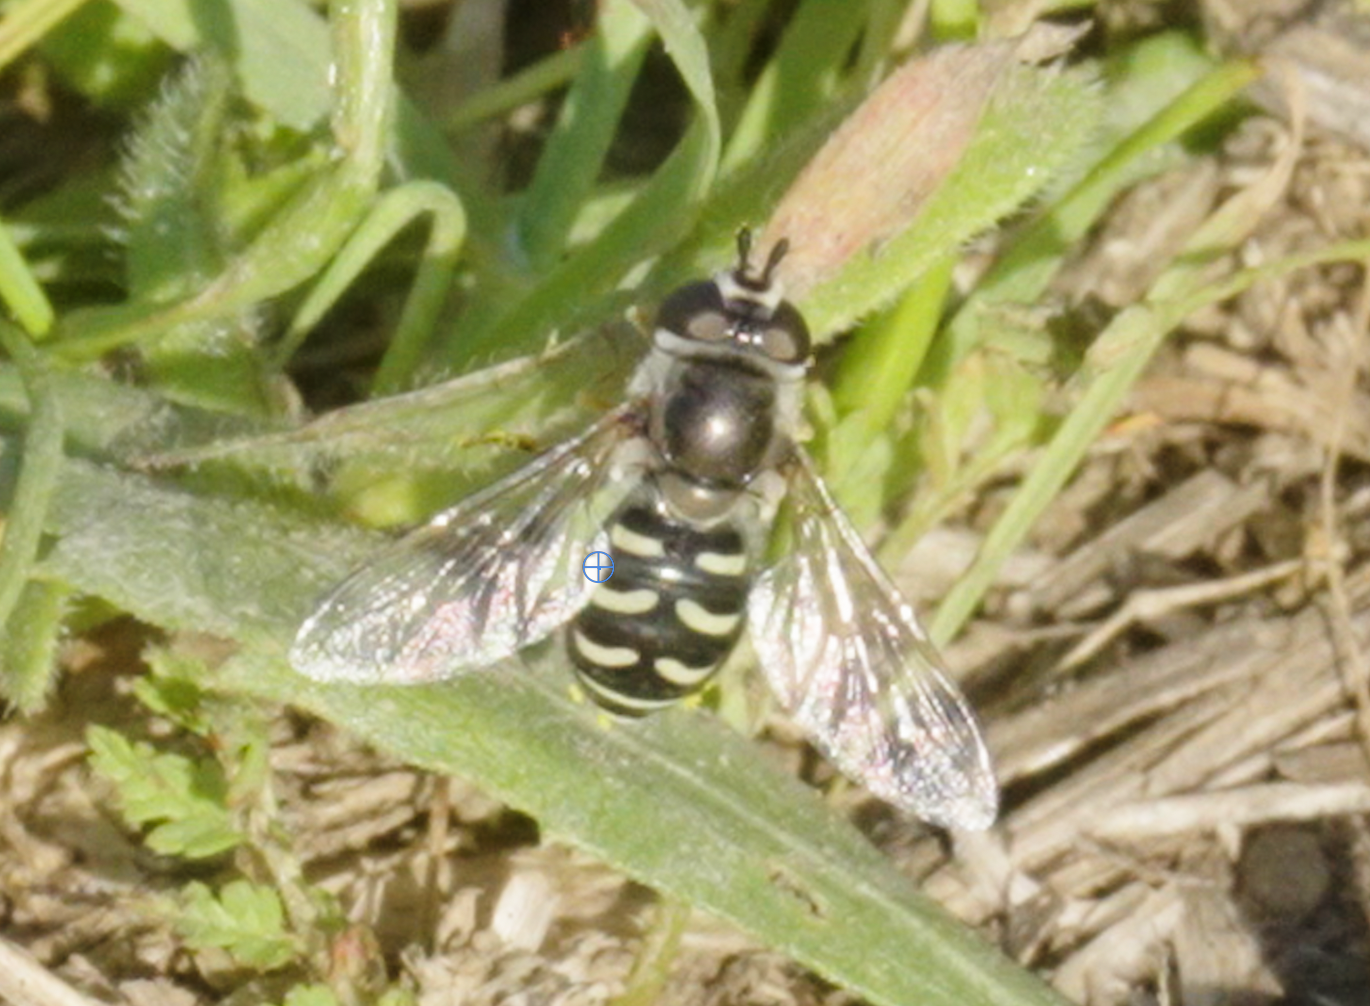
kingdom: Animalia
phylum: Arthropoda
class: Insecta
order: Diptera
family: Syrphidae
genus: Eupeodes
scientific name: Eupeodes volucris
